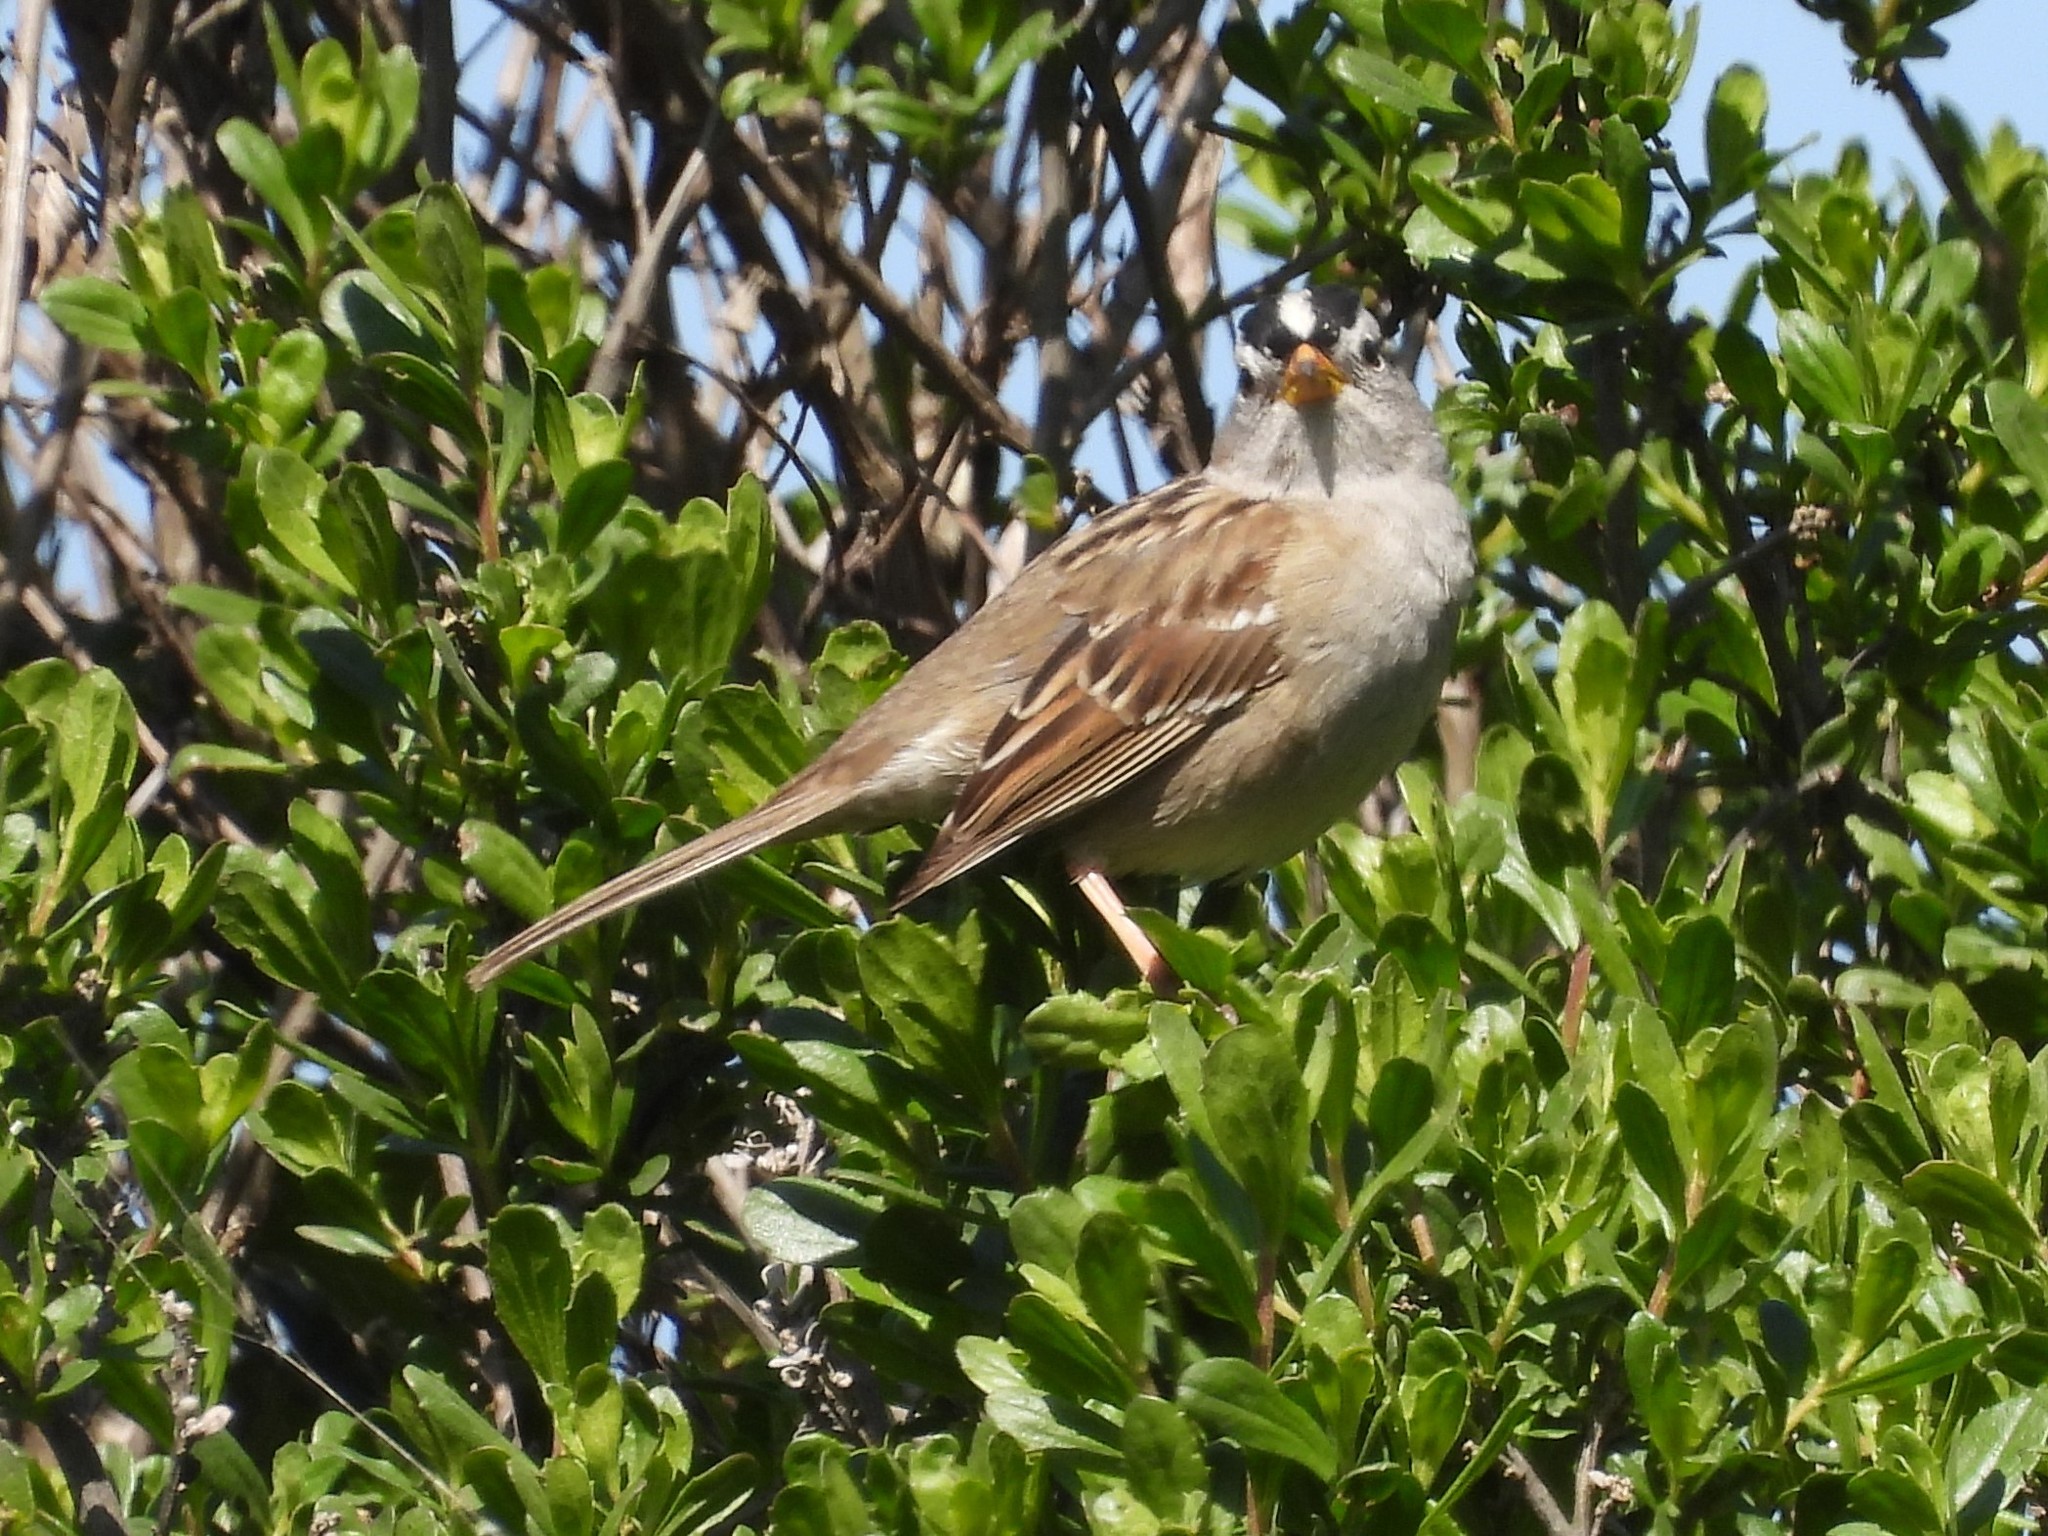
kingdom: Animalia
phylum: Chordata
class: Aves
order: Passeriformes
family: Passerellidae
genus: Zonotrichia
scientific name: Zonotrichia leucophrys
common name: White-crowned sparrow
